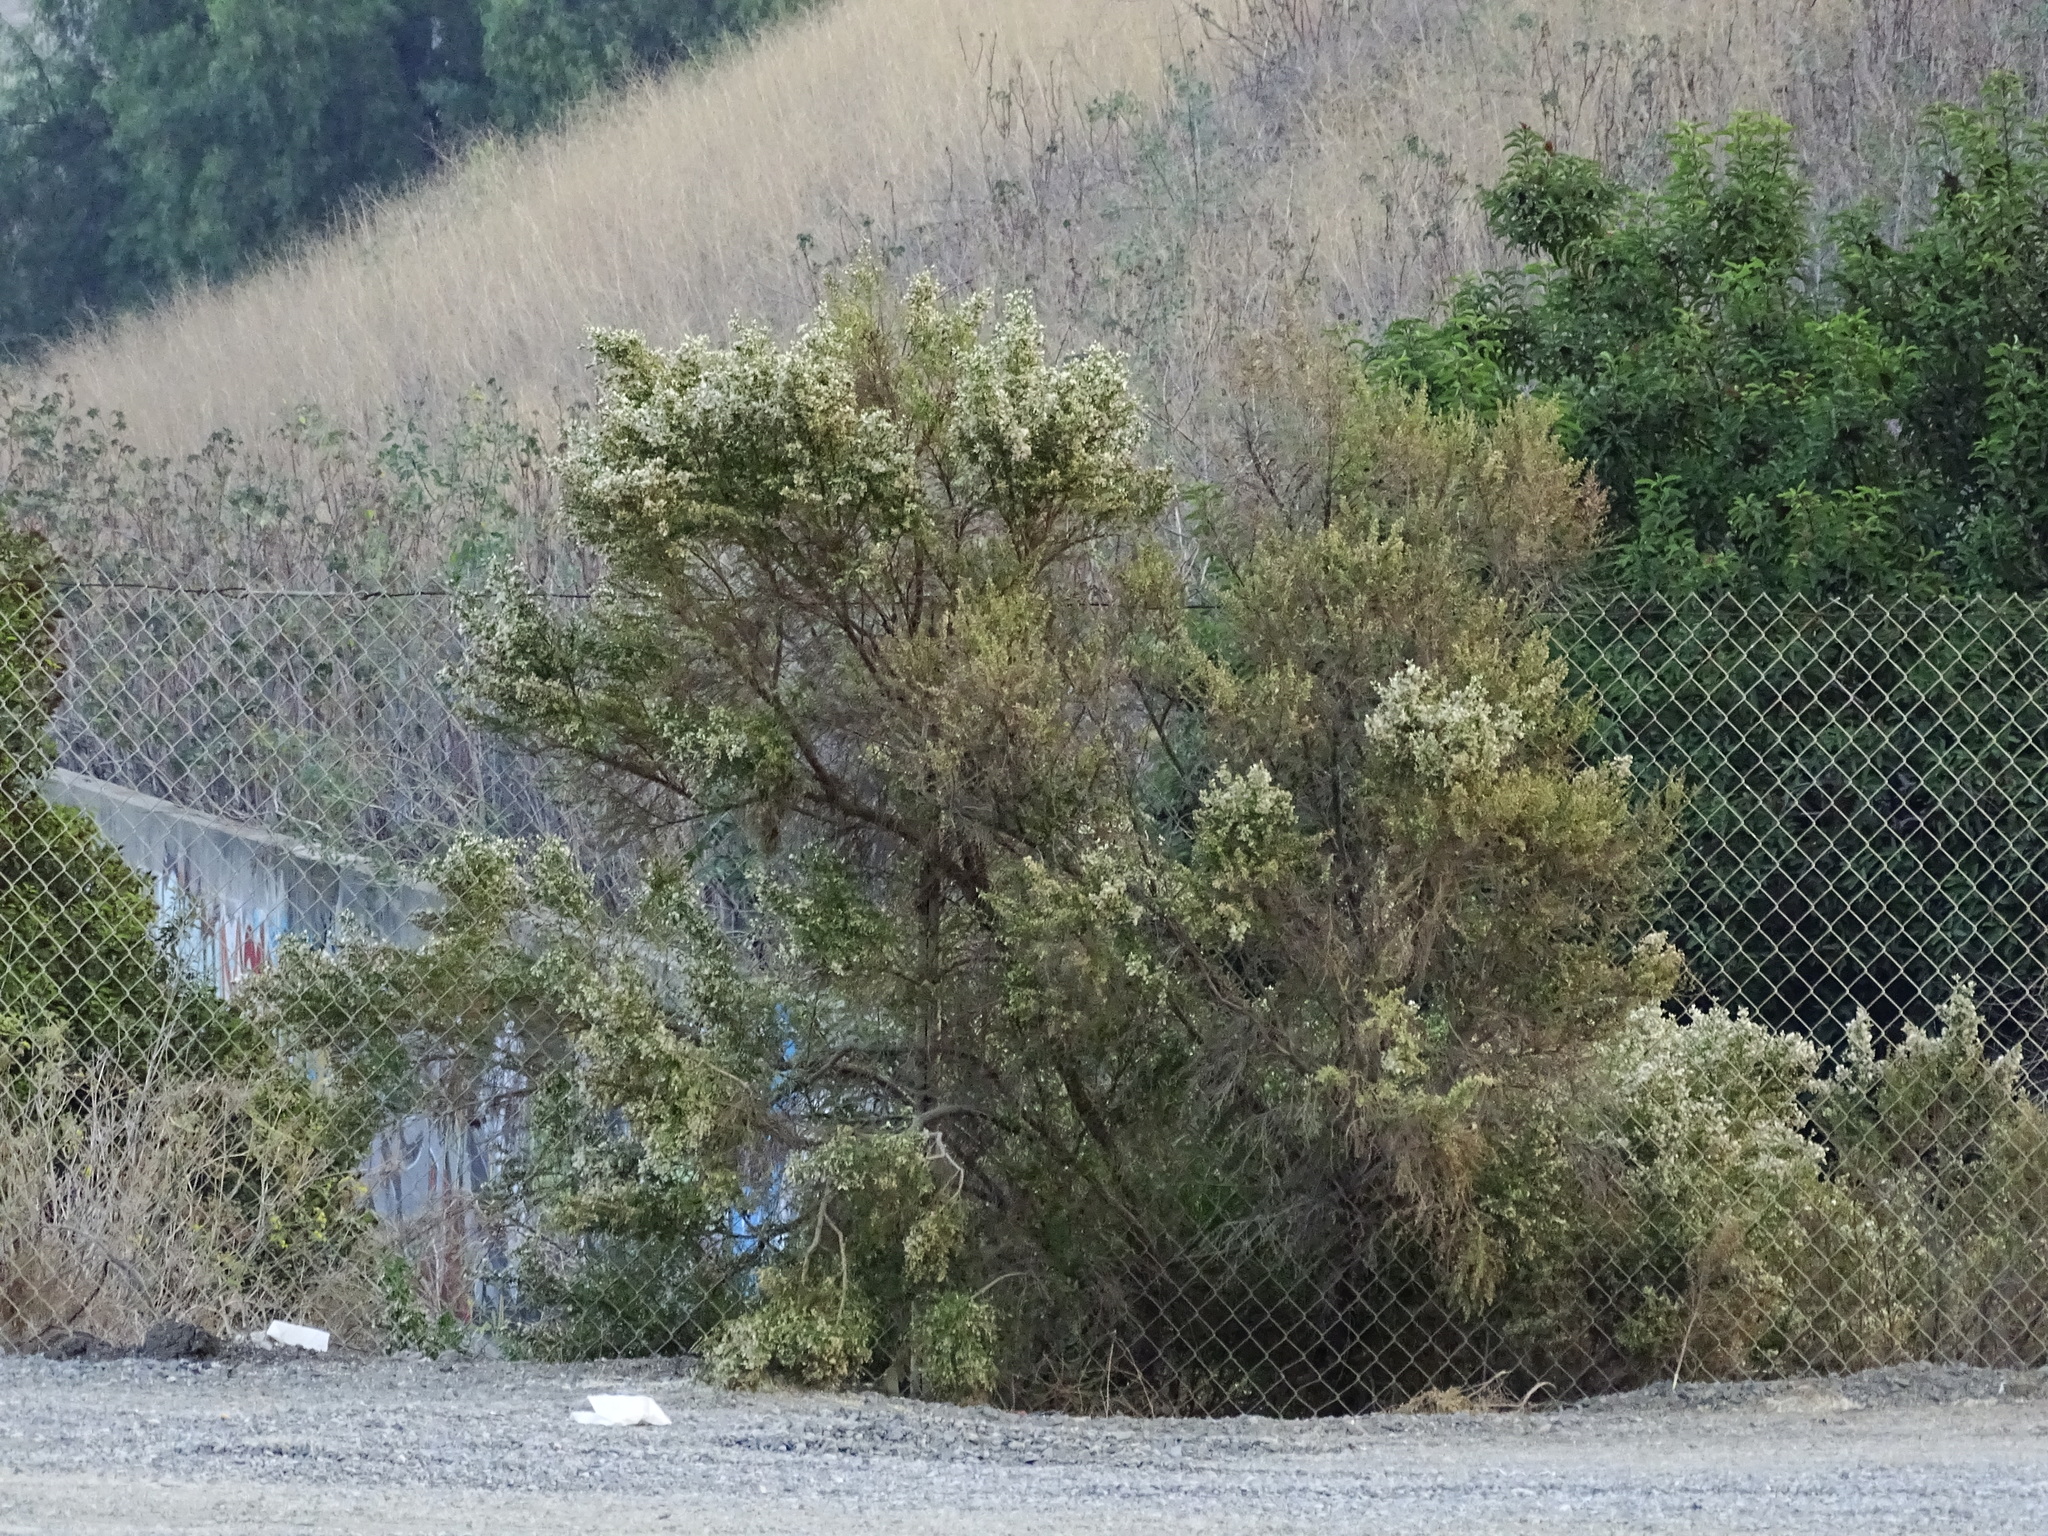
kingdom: Plantae
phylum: Tracheophyta
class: Magnoliopsida
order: Asterales
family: Asteraceae
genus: Baccharis
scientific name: Baccharis pilularis
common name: Coyotebrush
